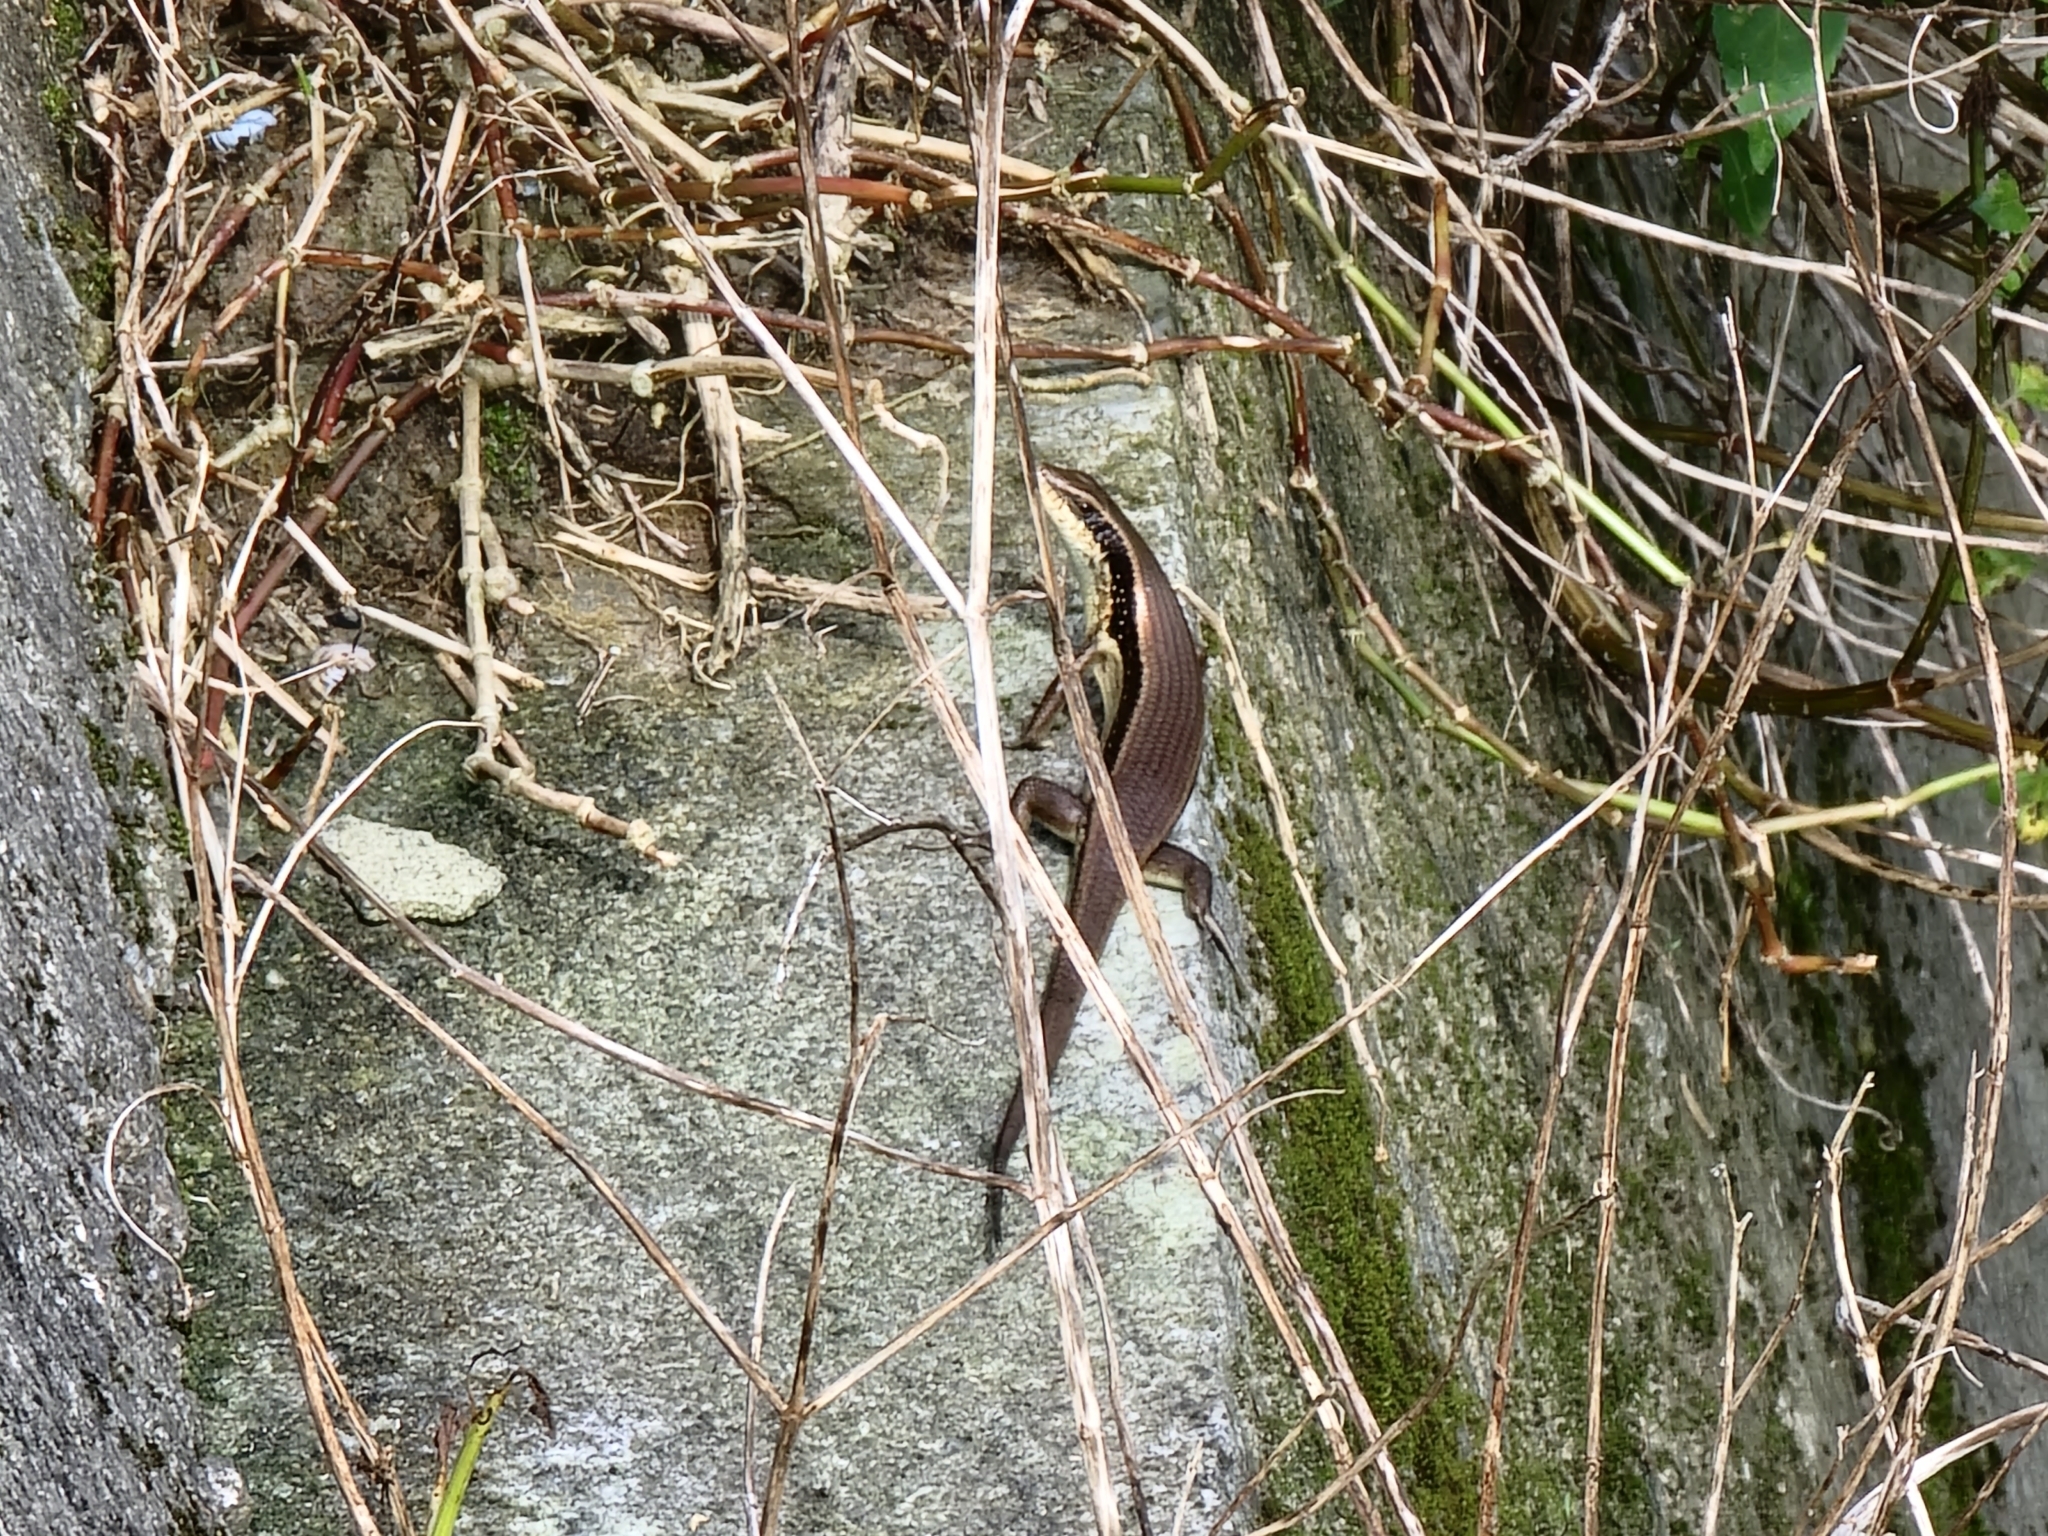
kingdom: Animalia
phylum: Chordata
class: Squamata
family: Scincidae
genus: Eutropis
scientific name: Eutropis longicaudata
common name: Long-tailed sun skink
